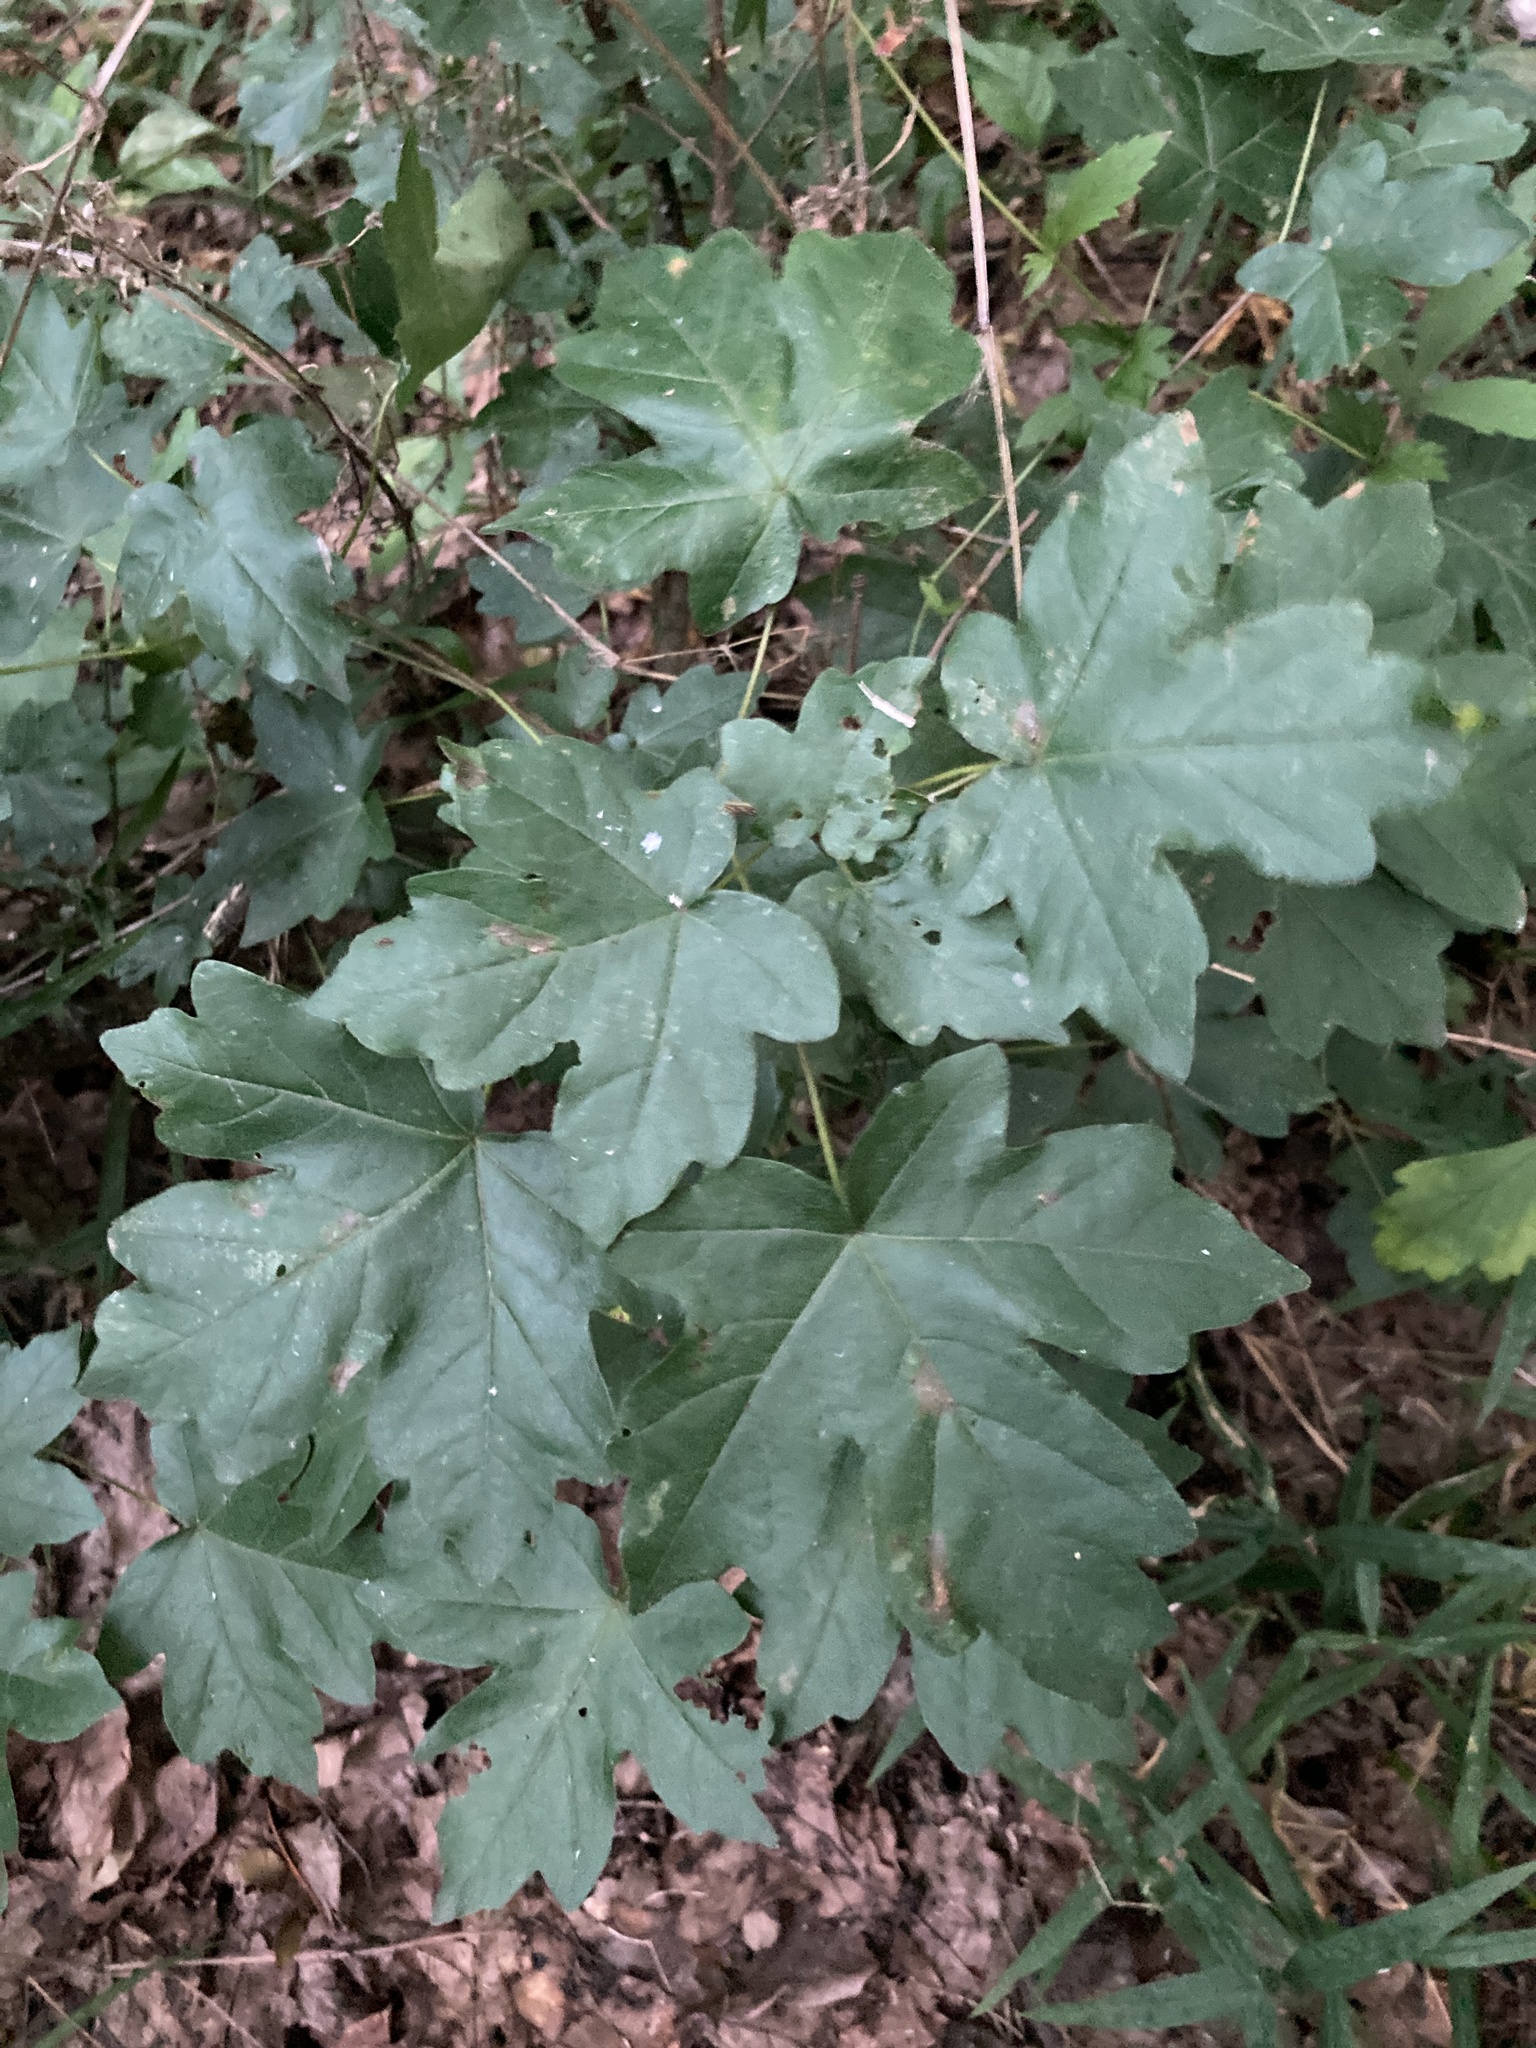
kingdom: Plantae
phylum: Tracheophyta
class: Magnoliopsida
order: Sapindales
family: Sapindaceae
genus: Acer
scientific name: Acer campestre
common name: Field maple
